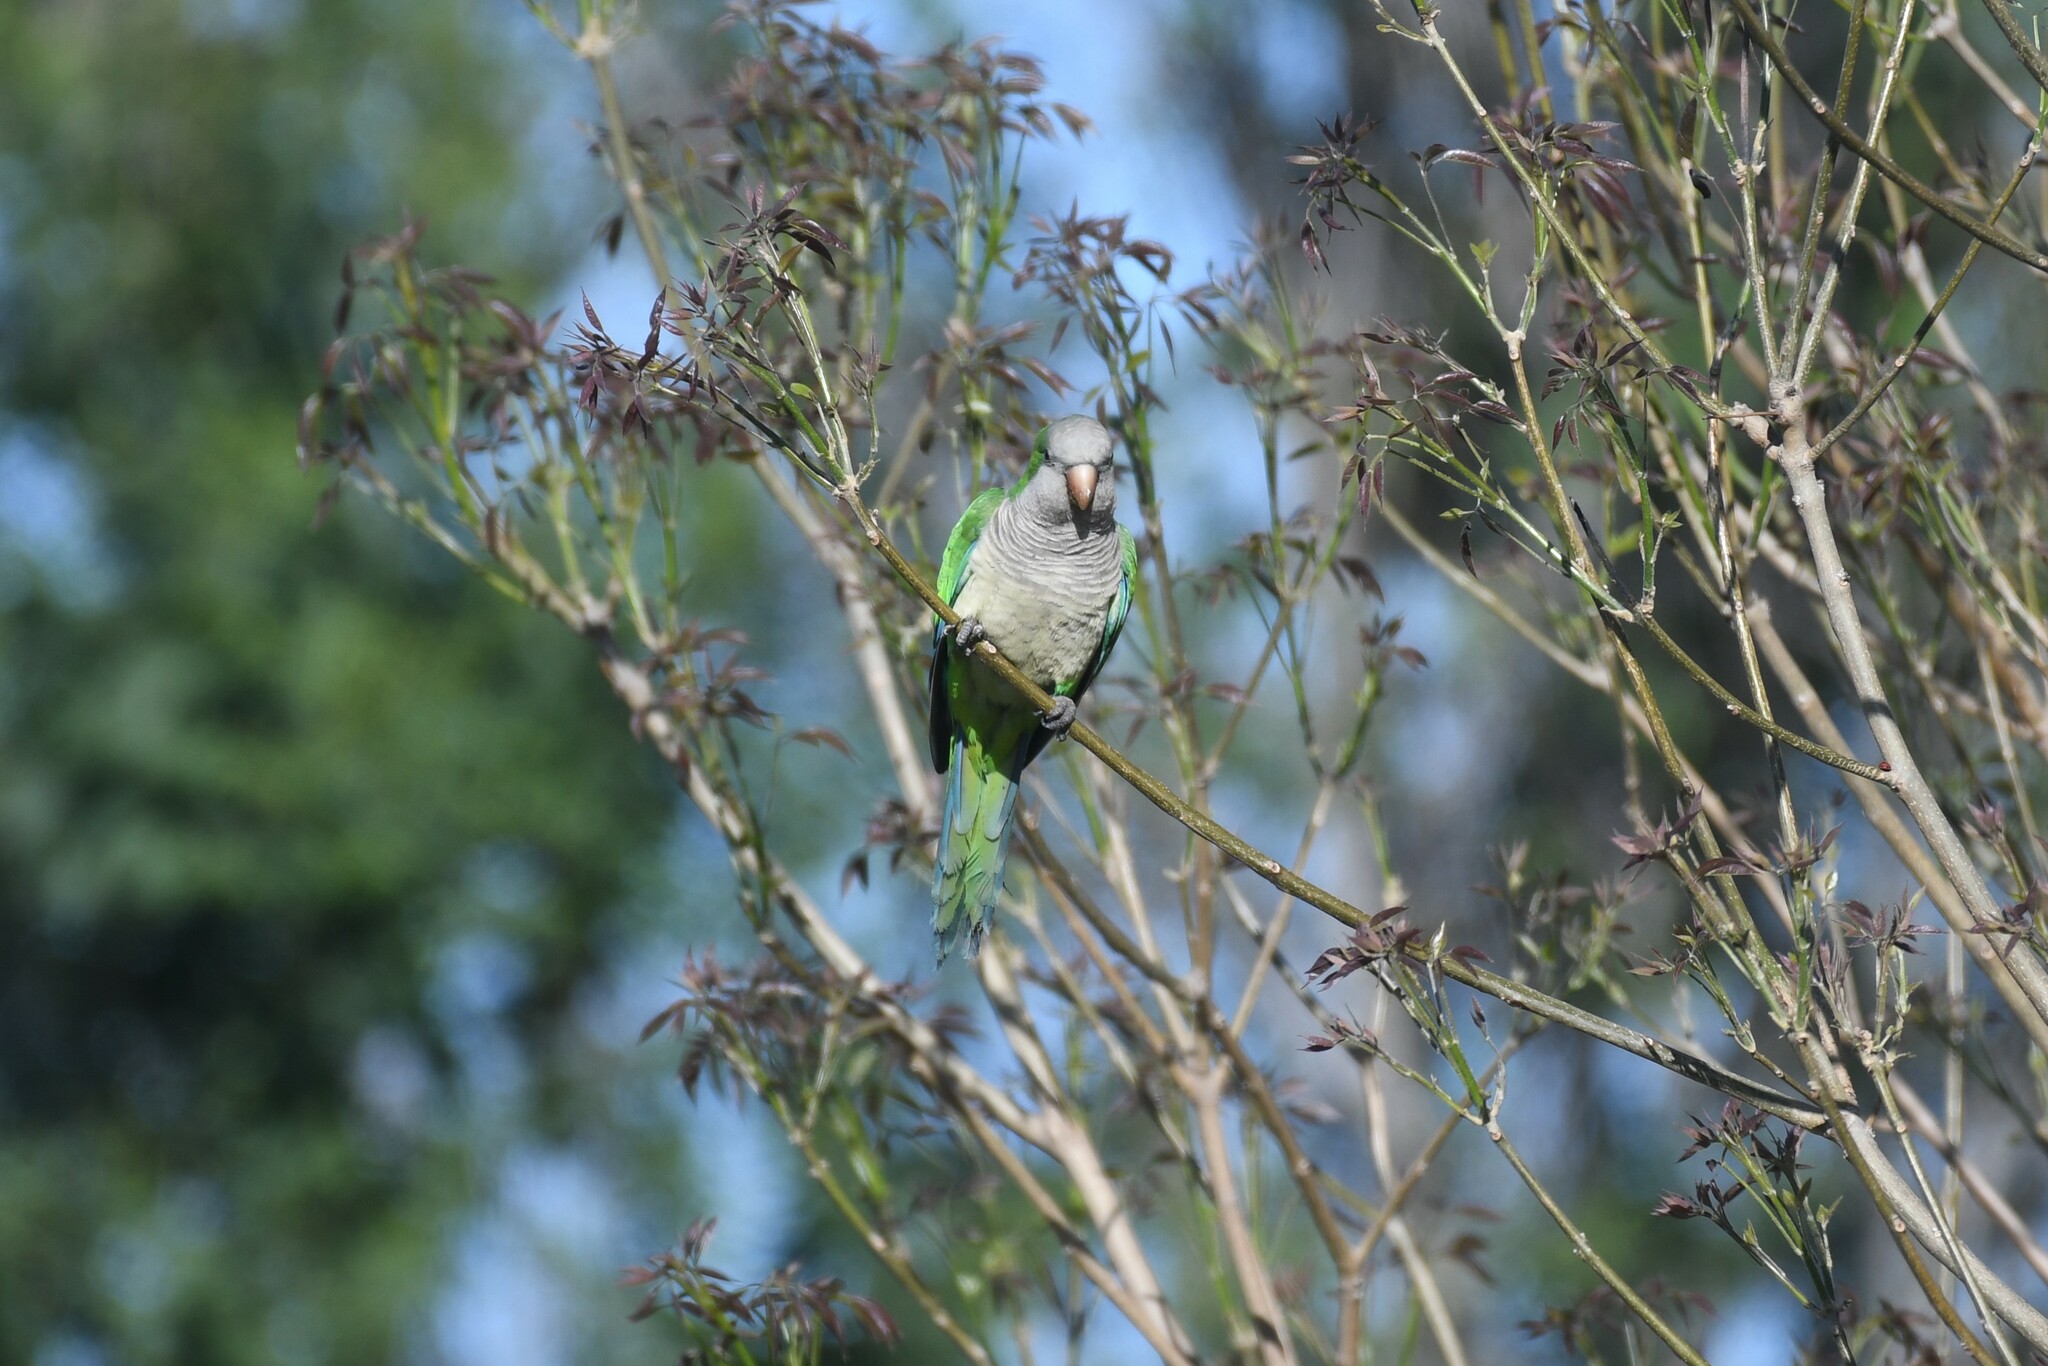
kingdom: Animalia
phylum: Chordata
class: Aves
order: Psittaciformes
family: Psittacidae
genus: Myiopsitta
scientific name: Myiopsitta monachus
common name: Monk parakeet
